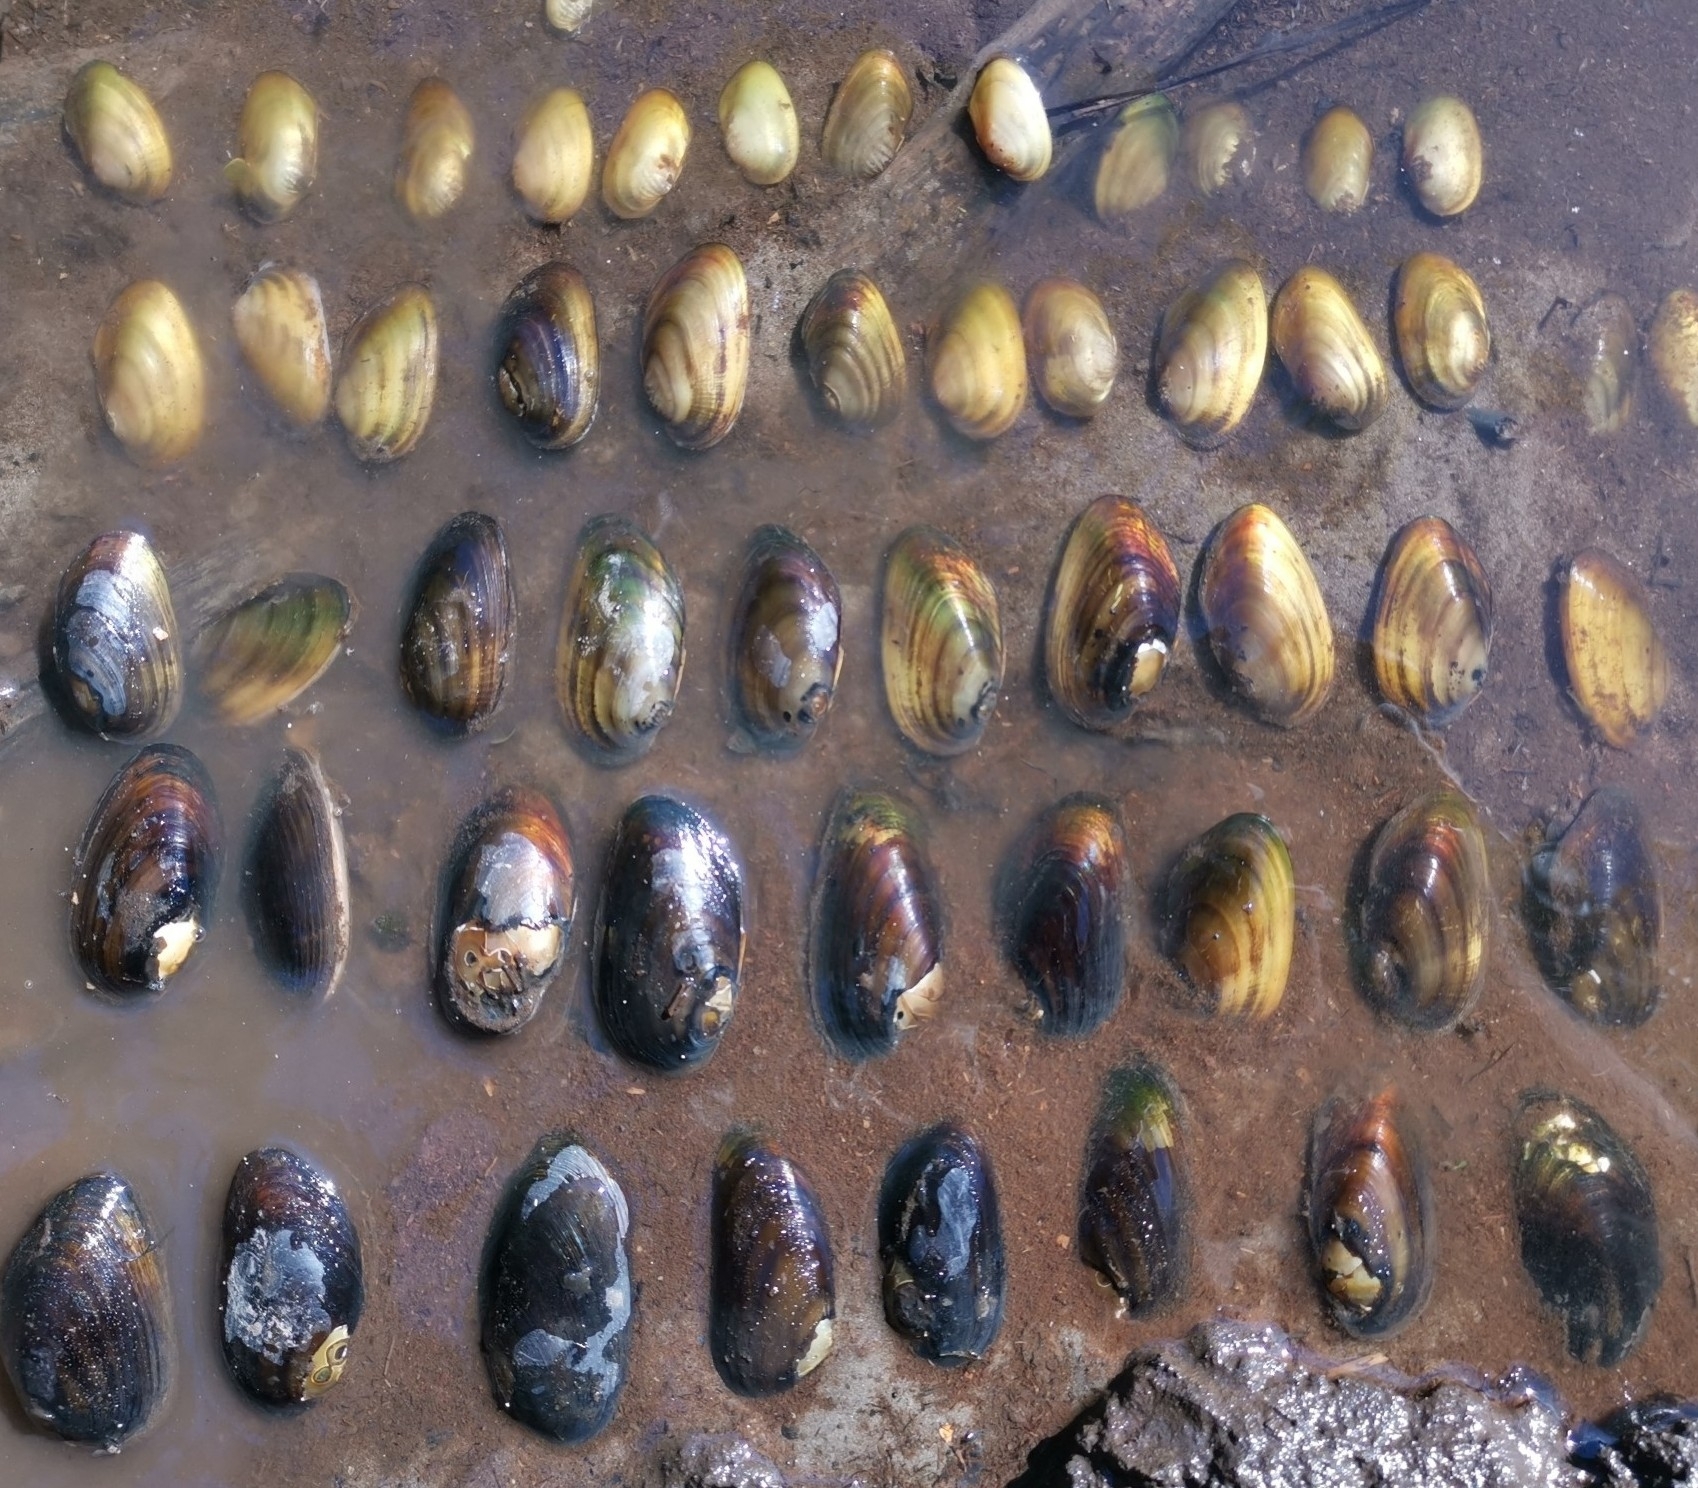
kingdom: Animalia
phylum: Mollusca
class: Bivalvia
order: Unionida
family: Hyriidae
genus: Diplodon
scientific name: Diplodon chilensis
